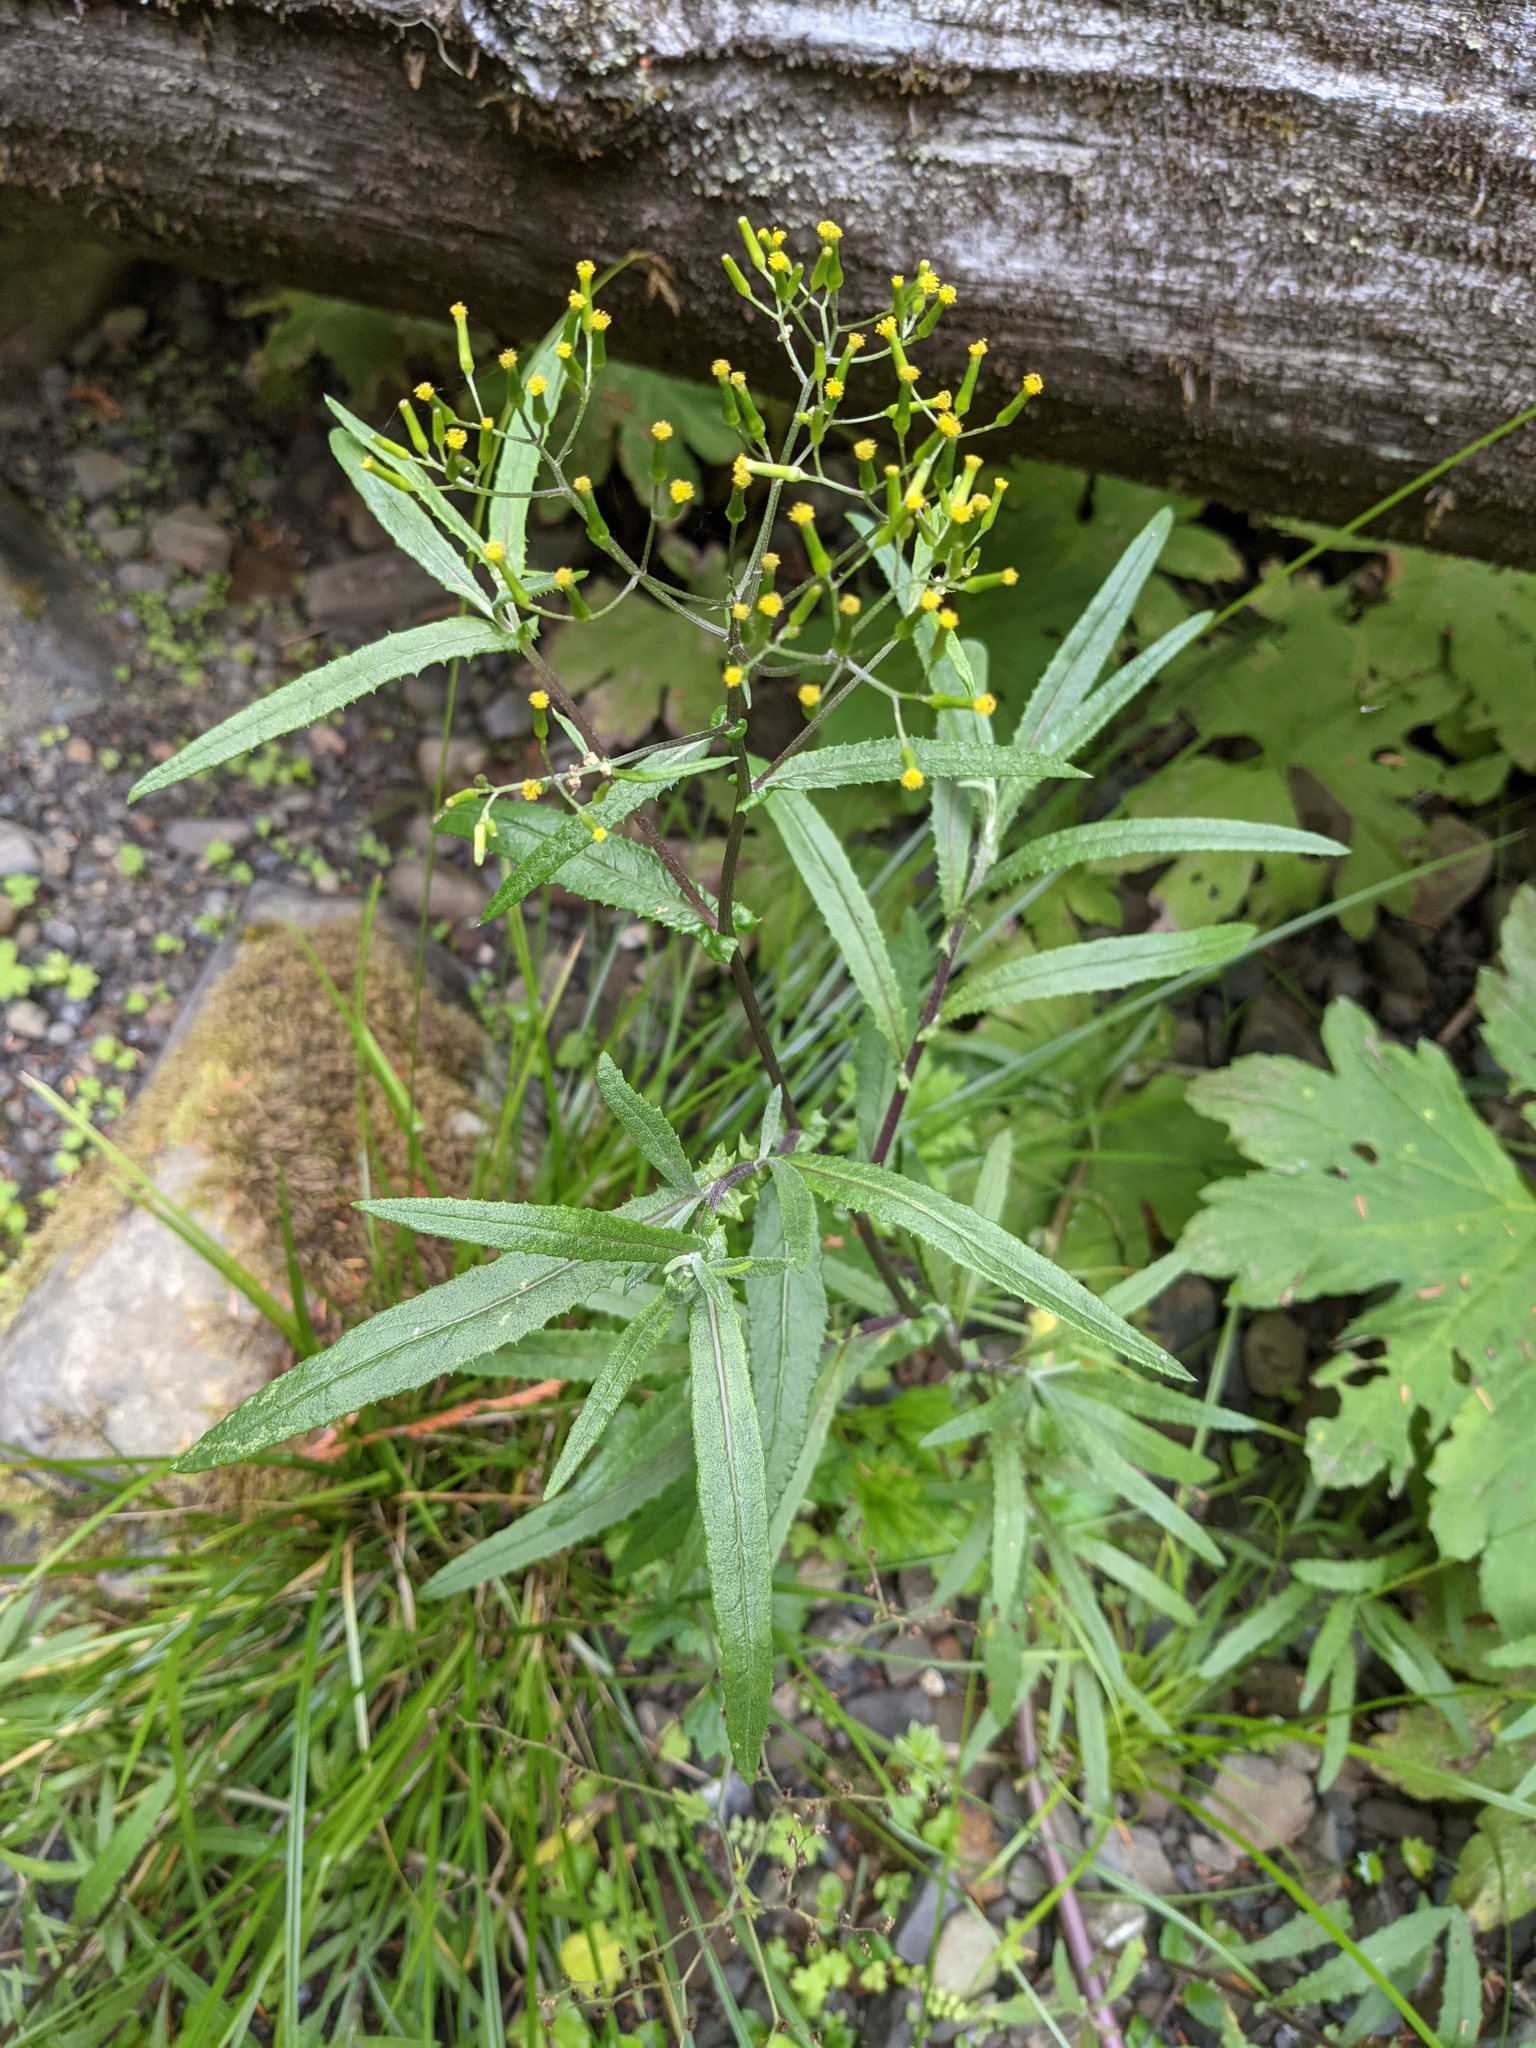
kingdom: Plantae
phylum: Tracheophyta
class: Magnoliopsida
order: Asterales
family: Asteraceae
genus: Senecio
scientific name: Senecio minimus
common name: Toothed fireweed
